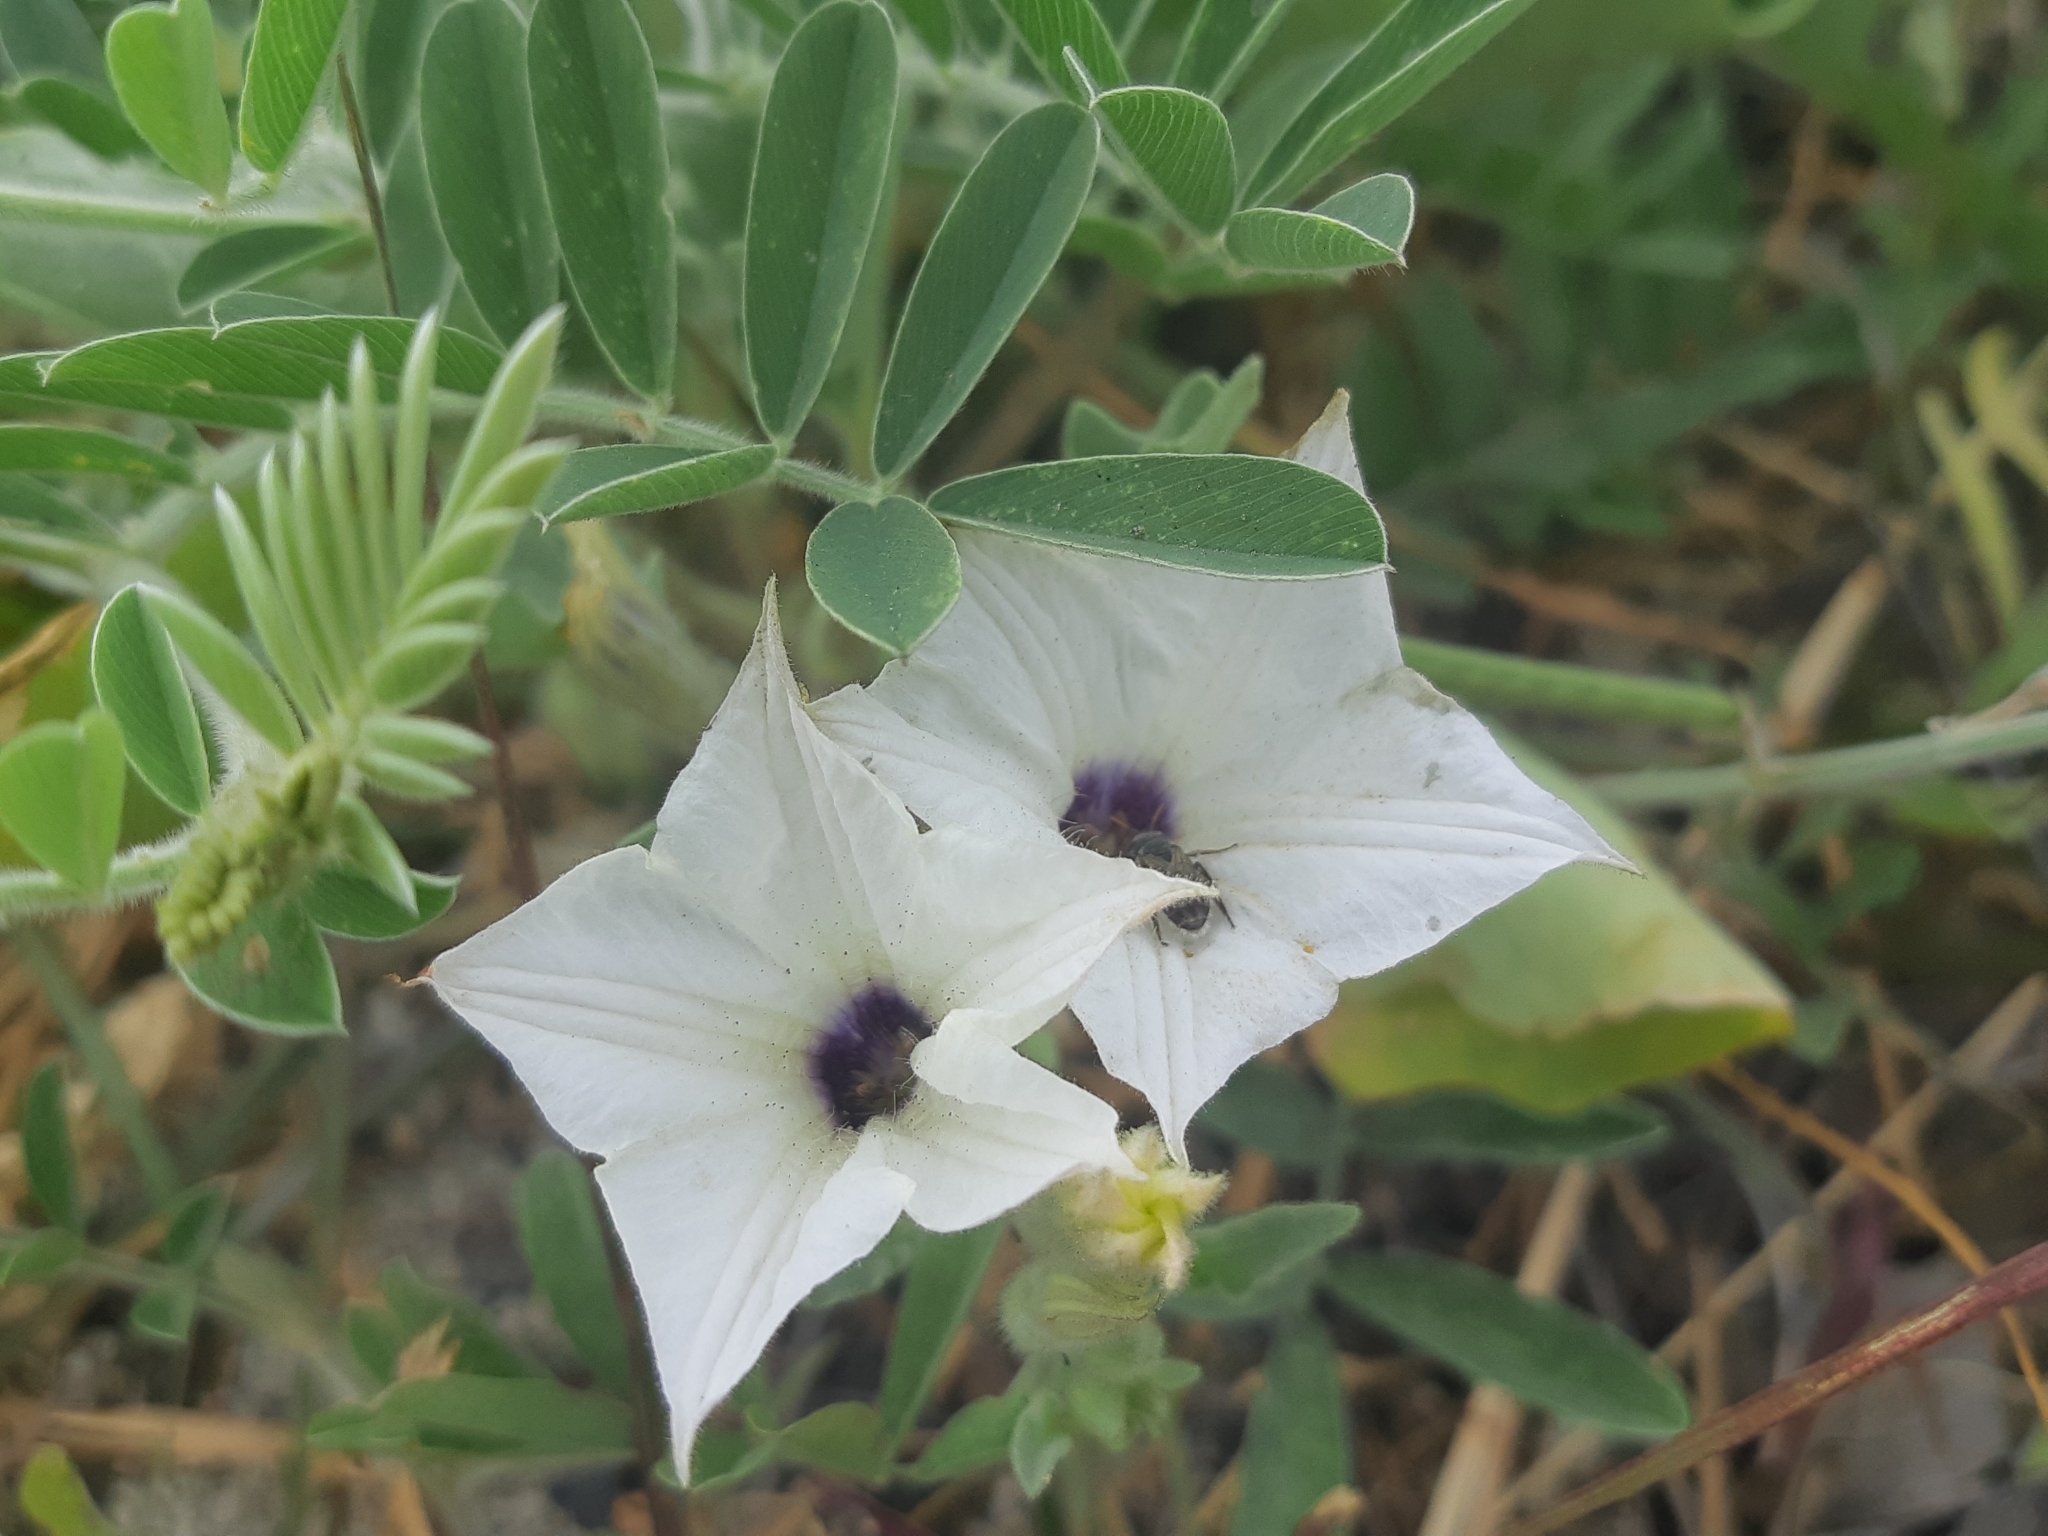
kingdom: Plantae
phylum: Tracheophyta
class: Magnoliopsida
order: Solanales
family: Solanaceae
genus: Exodeconus
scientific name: Exodeconus maritima
